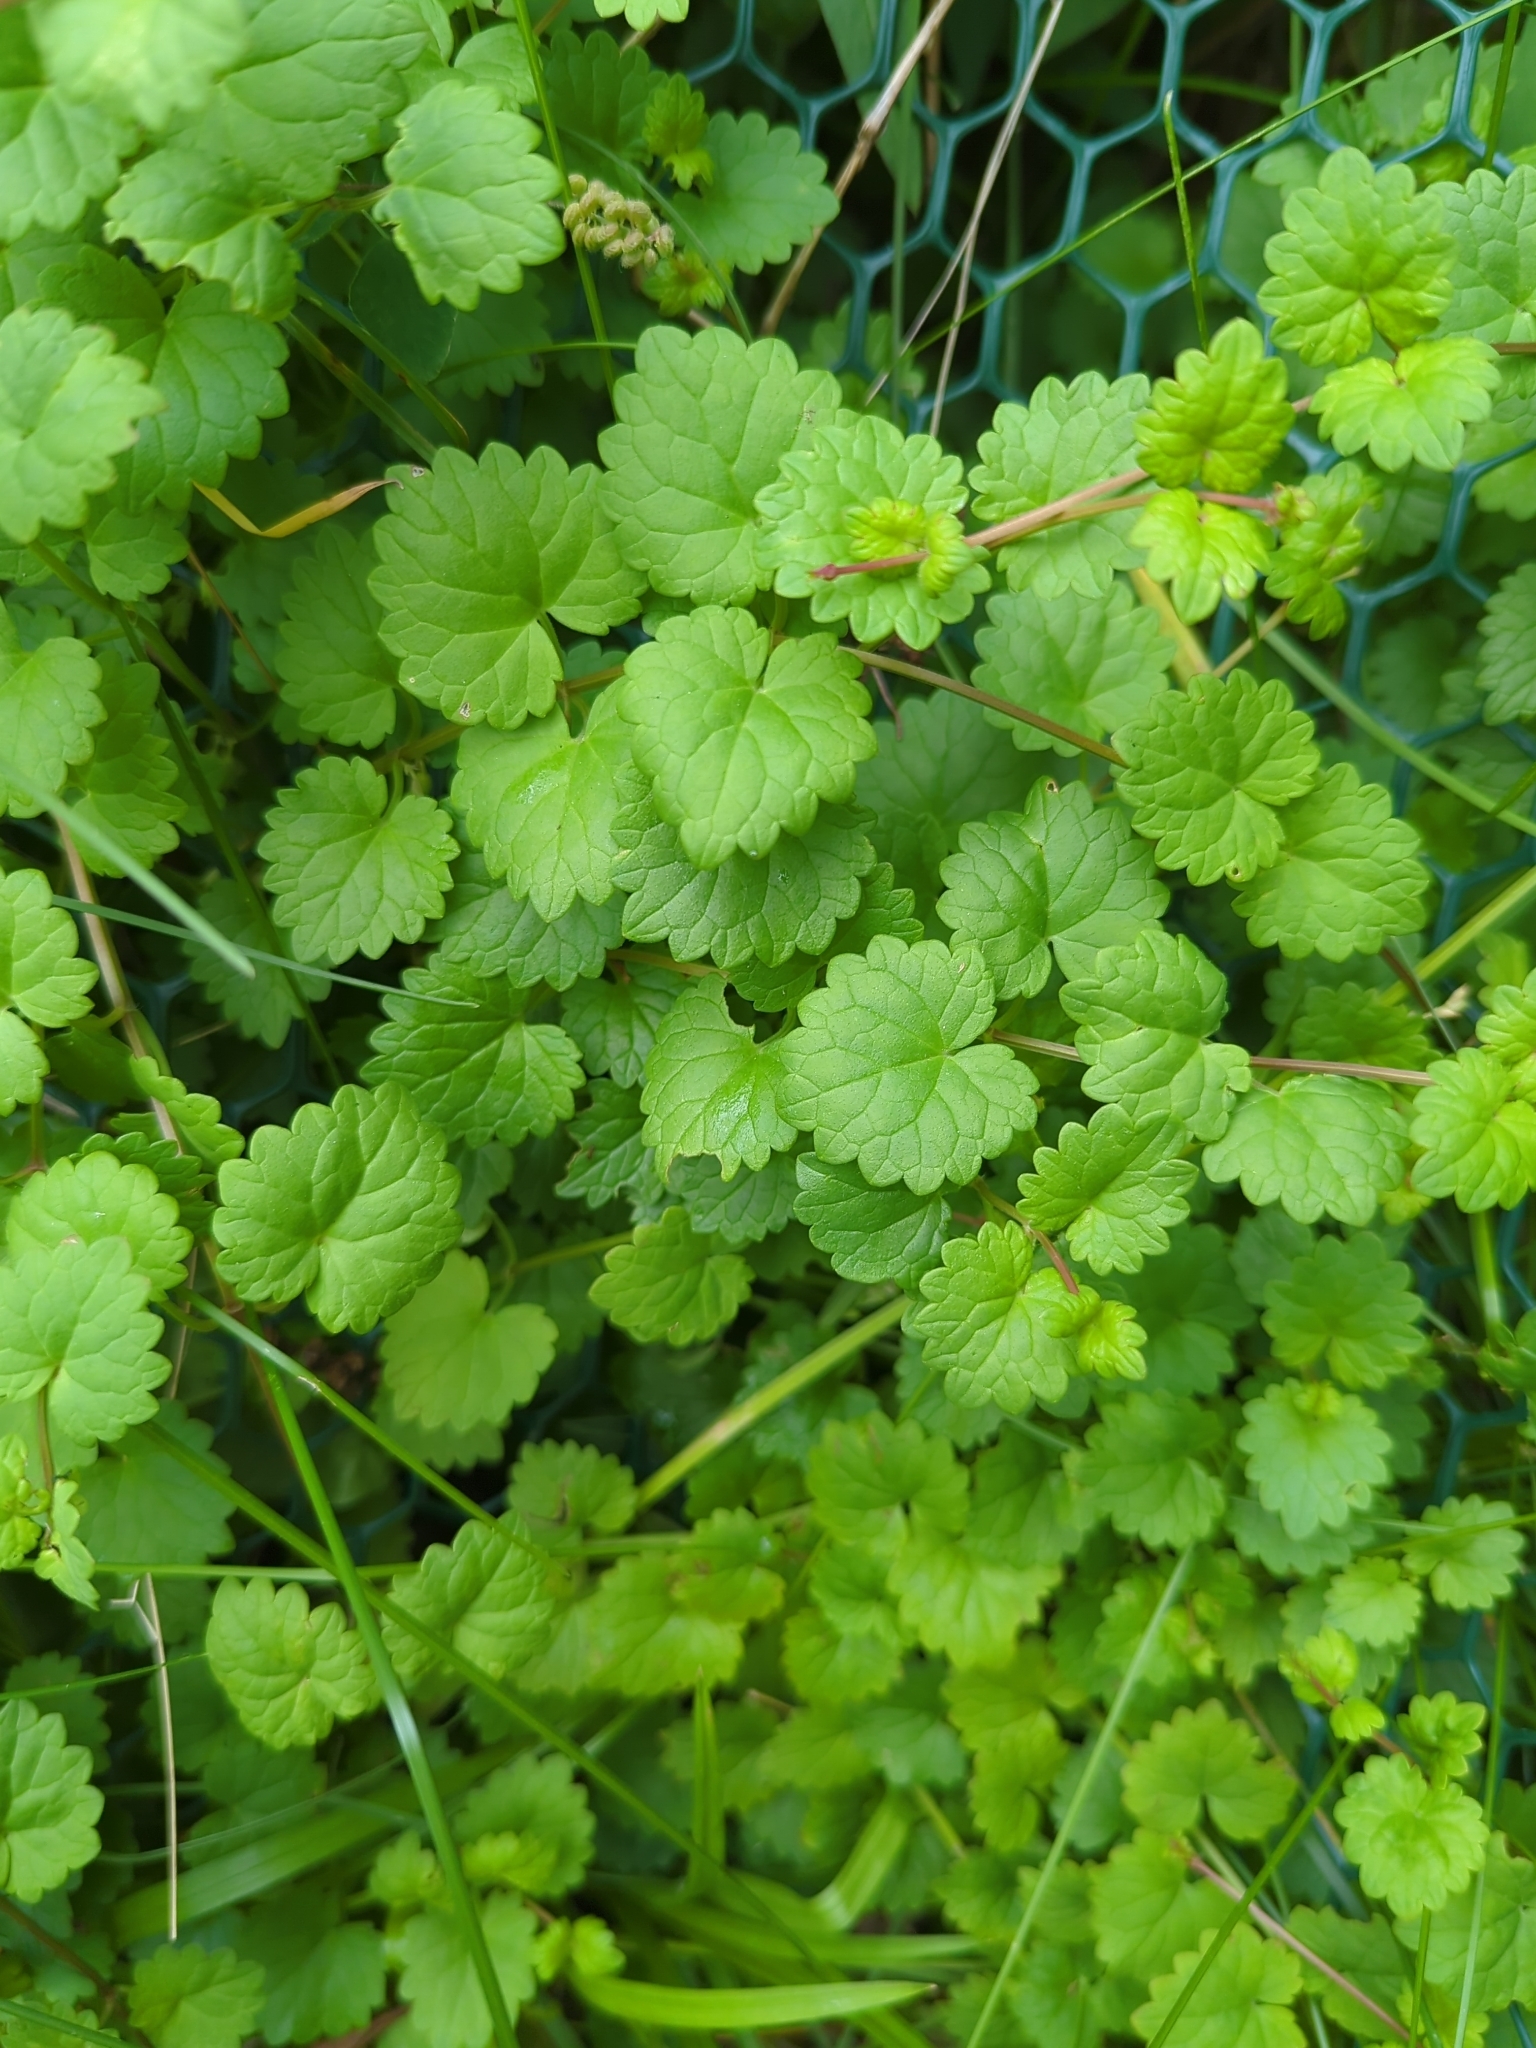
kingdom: Plantae
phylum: Tracheophyta
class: Magnoliopsida
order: Lamiales
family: Lamiaceae
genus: Glechoma
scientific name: Glechoma hederacea
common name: Ground ivy
